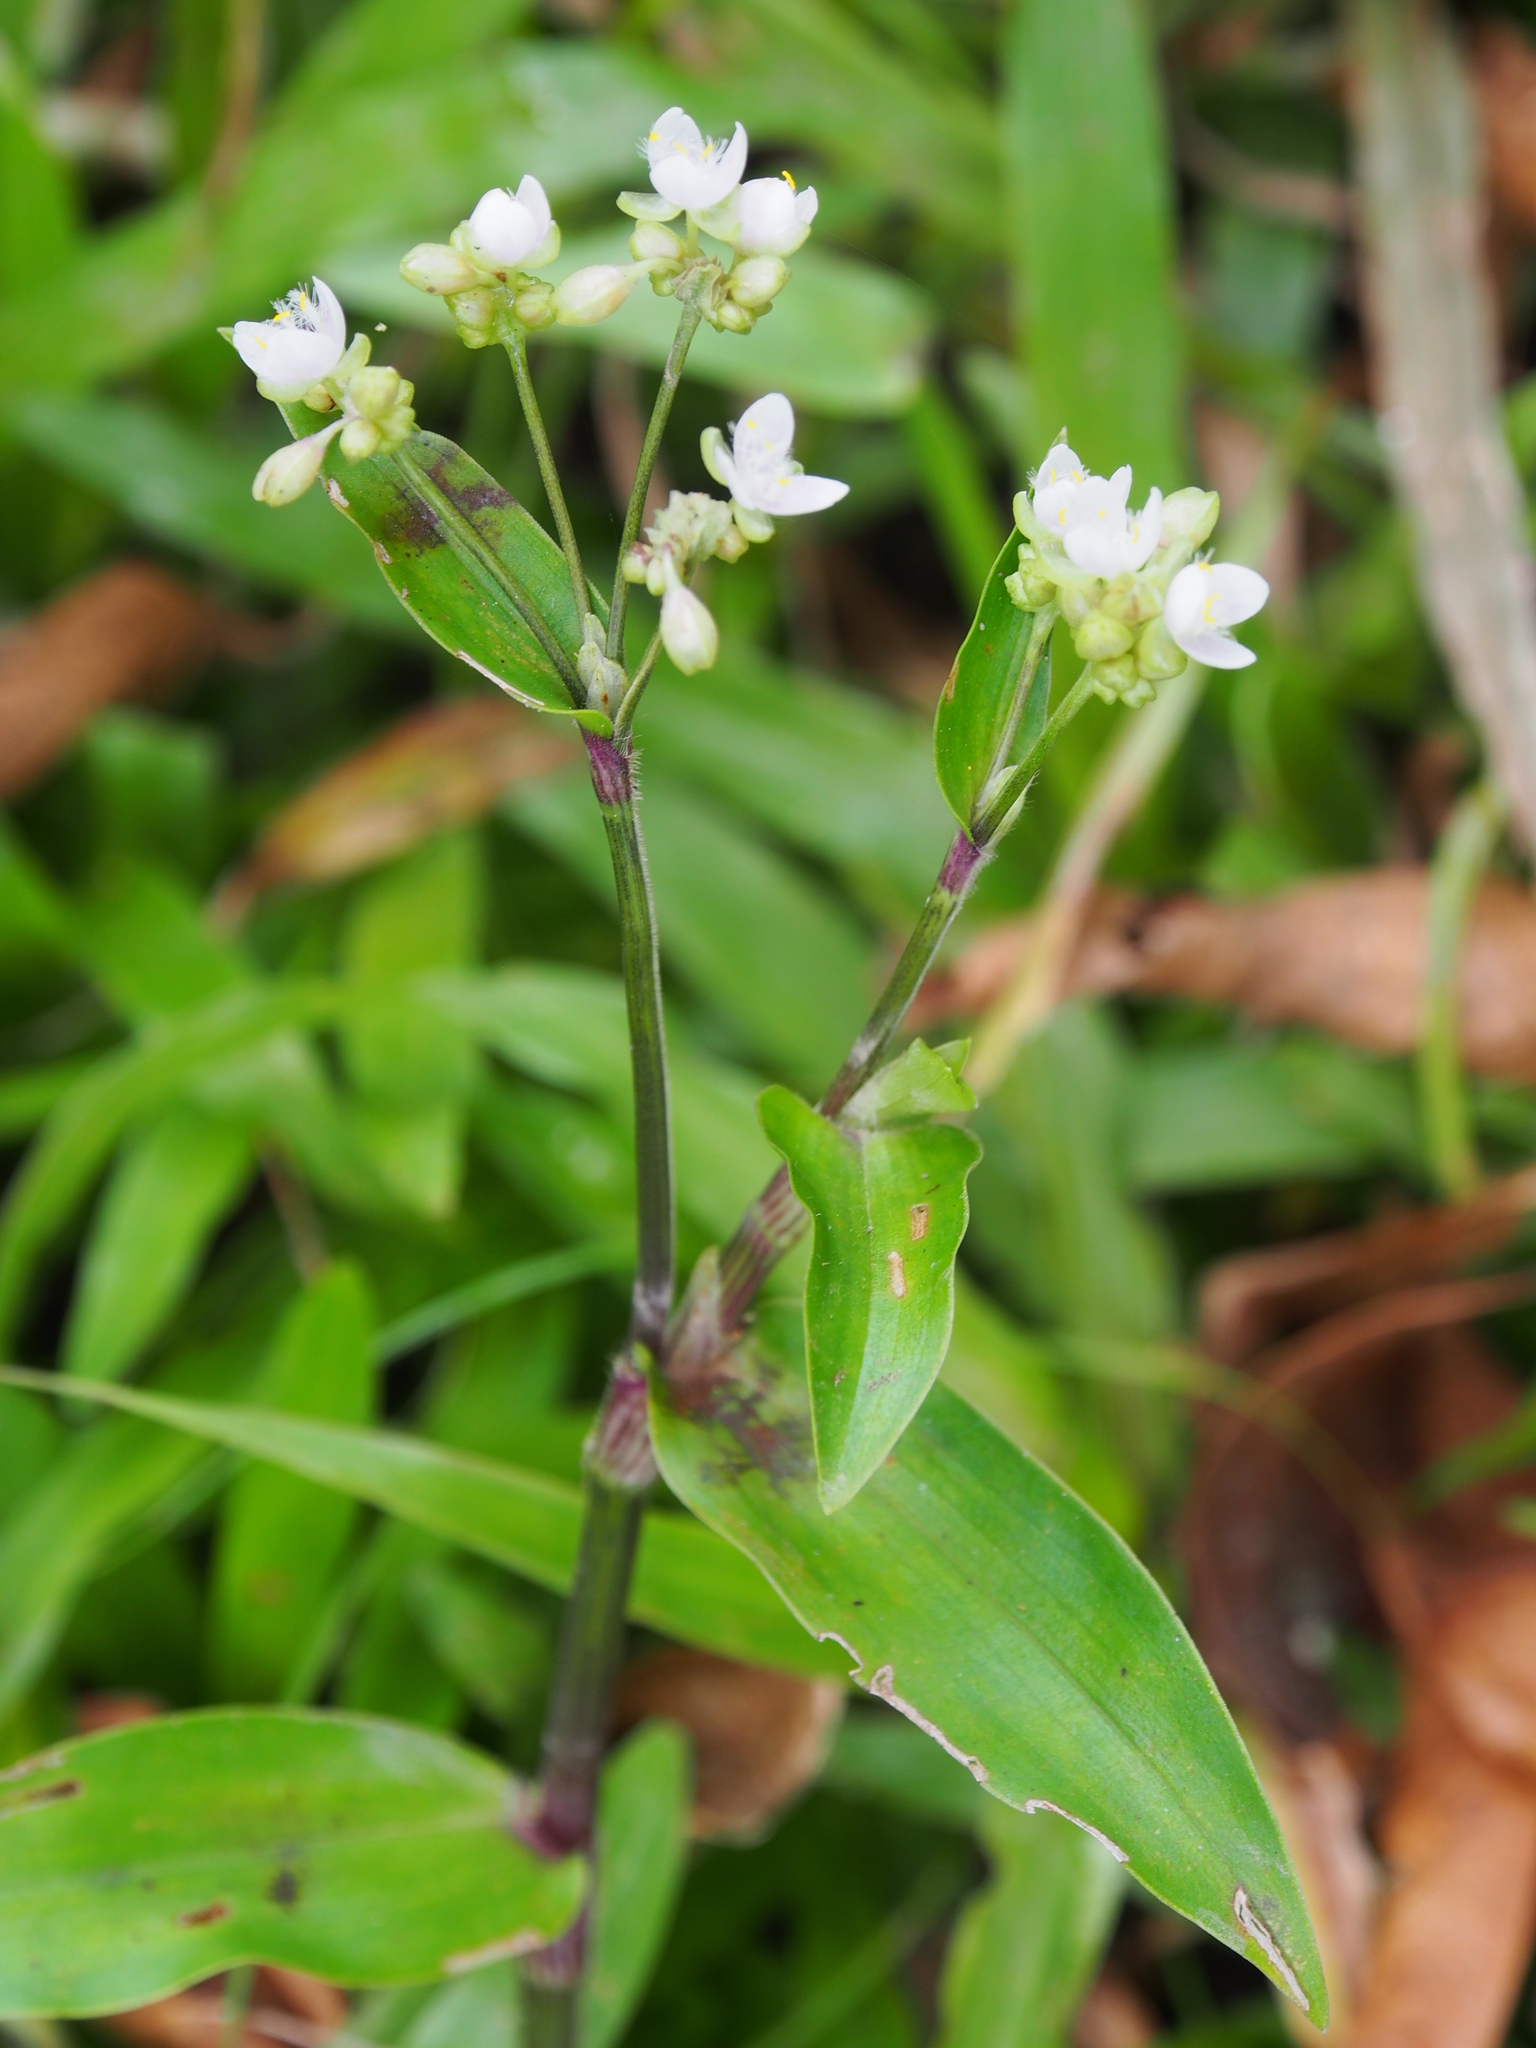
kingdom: Plantae
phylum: Tracheophyta
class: Liliopsida
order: Commelinales
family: Commelinaceae
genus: Callisia
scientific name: Callisia serrulata
